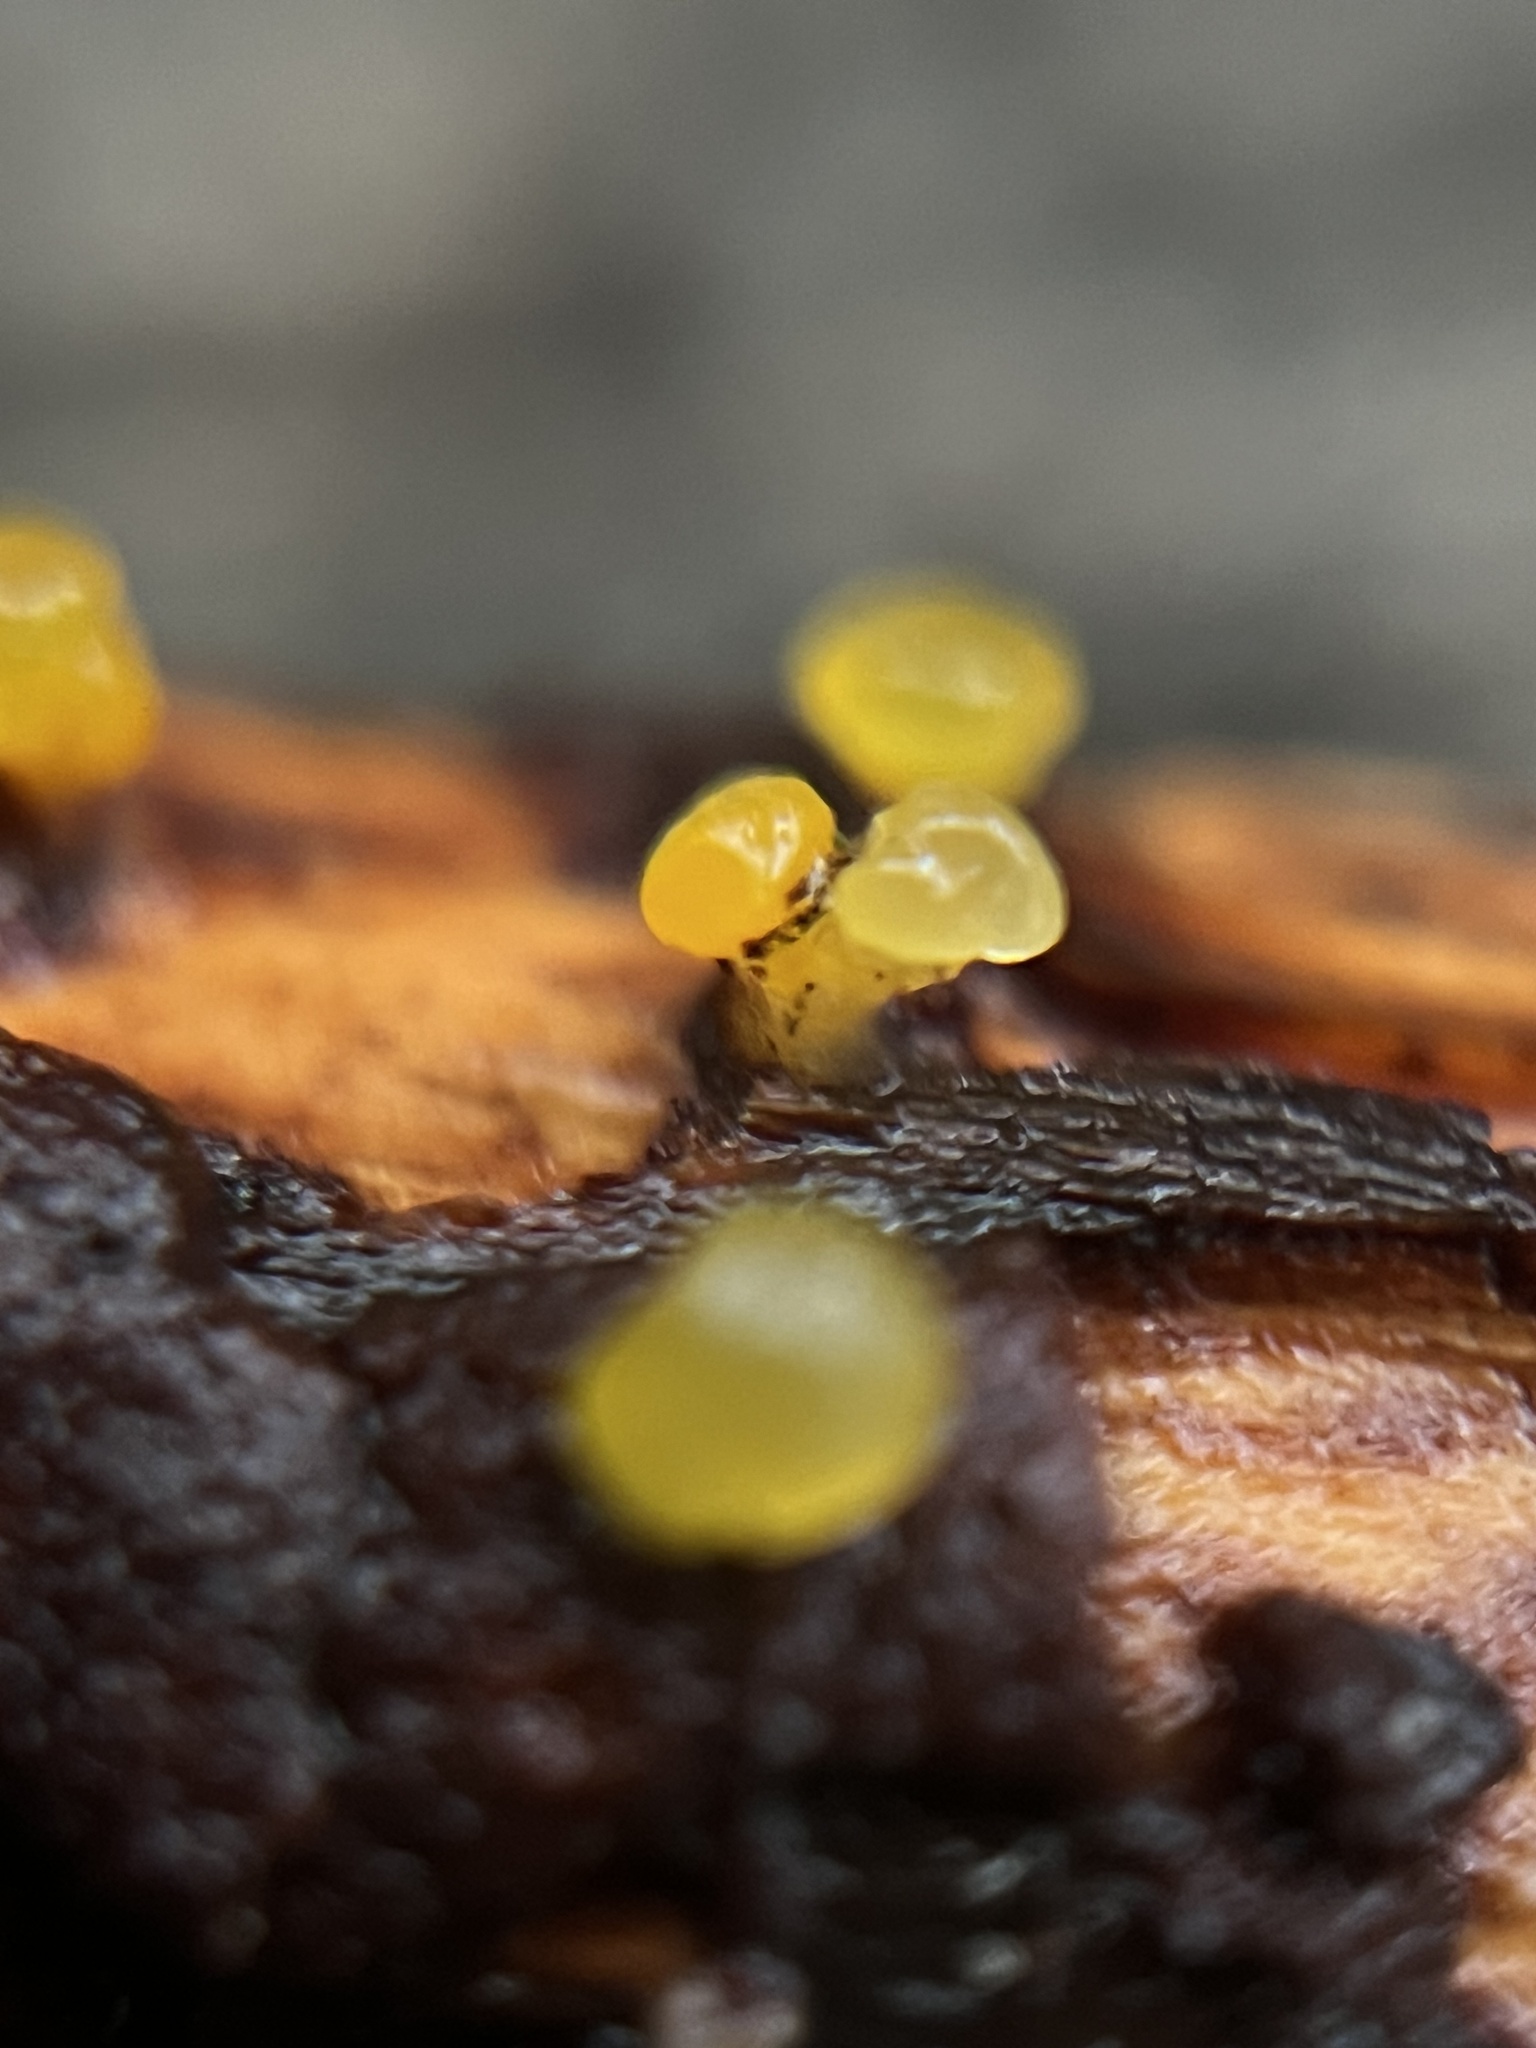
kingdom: Fungi
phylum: Basidiomycota
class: Dacrymycetes
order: Dacrymycetales
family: Dacrymycetaceae
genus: Dacrymyces
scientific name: Dacrymyces capitatus
